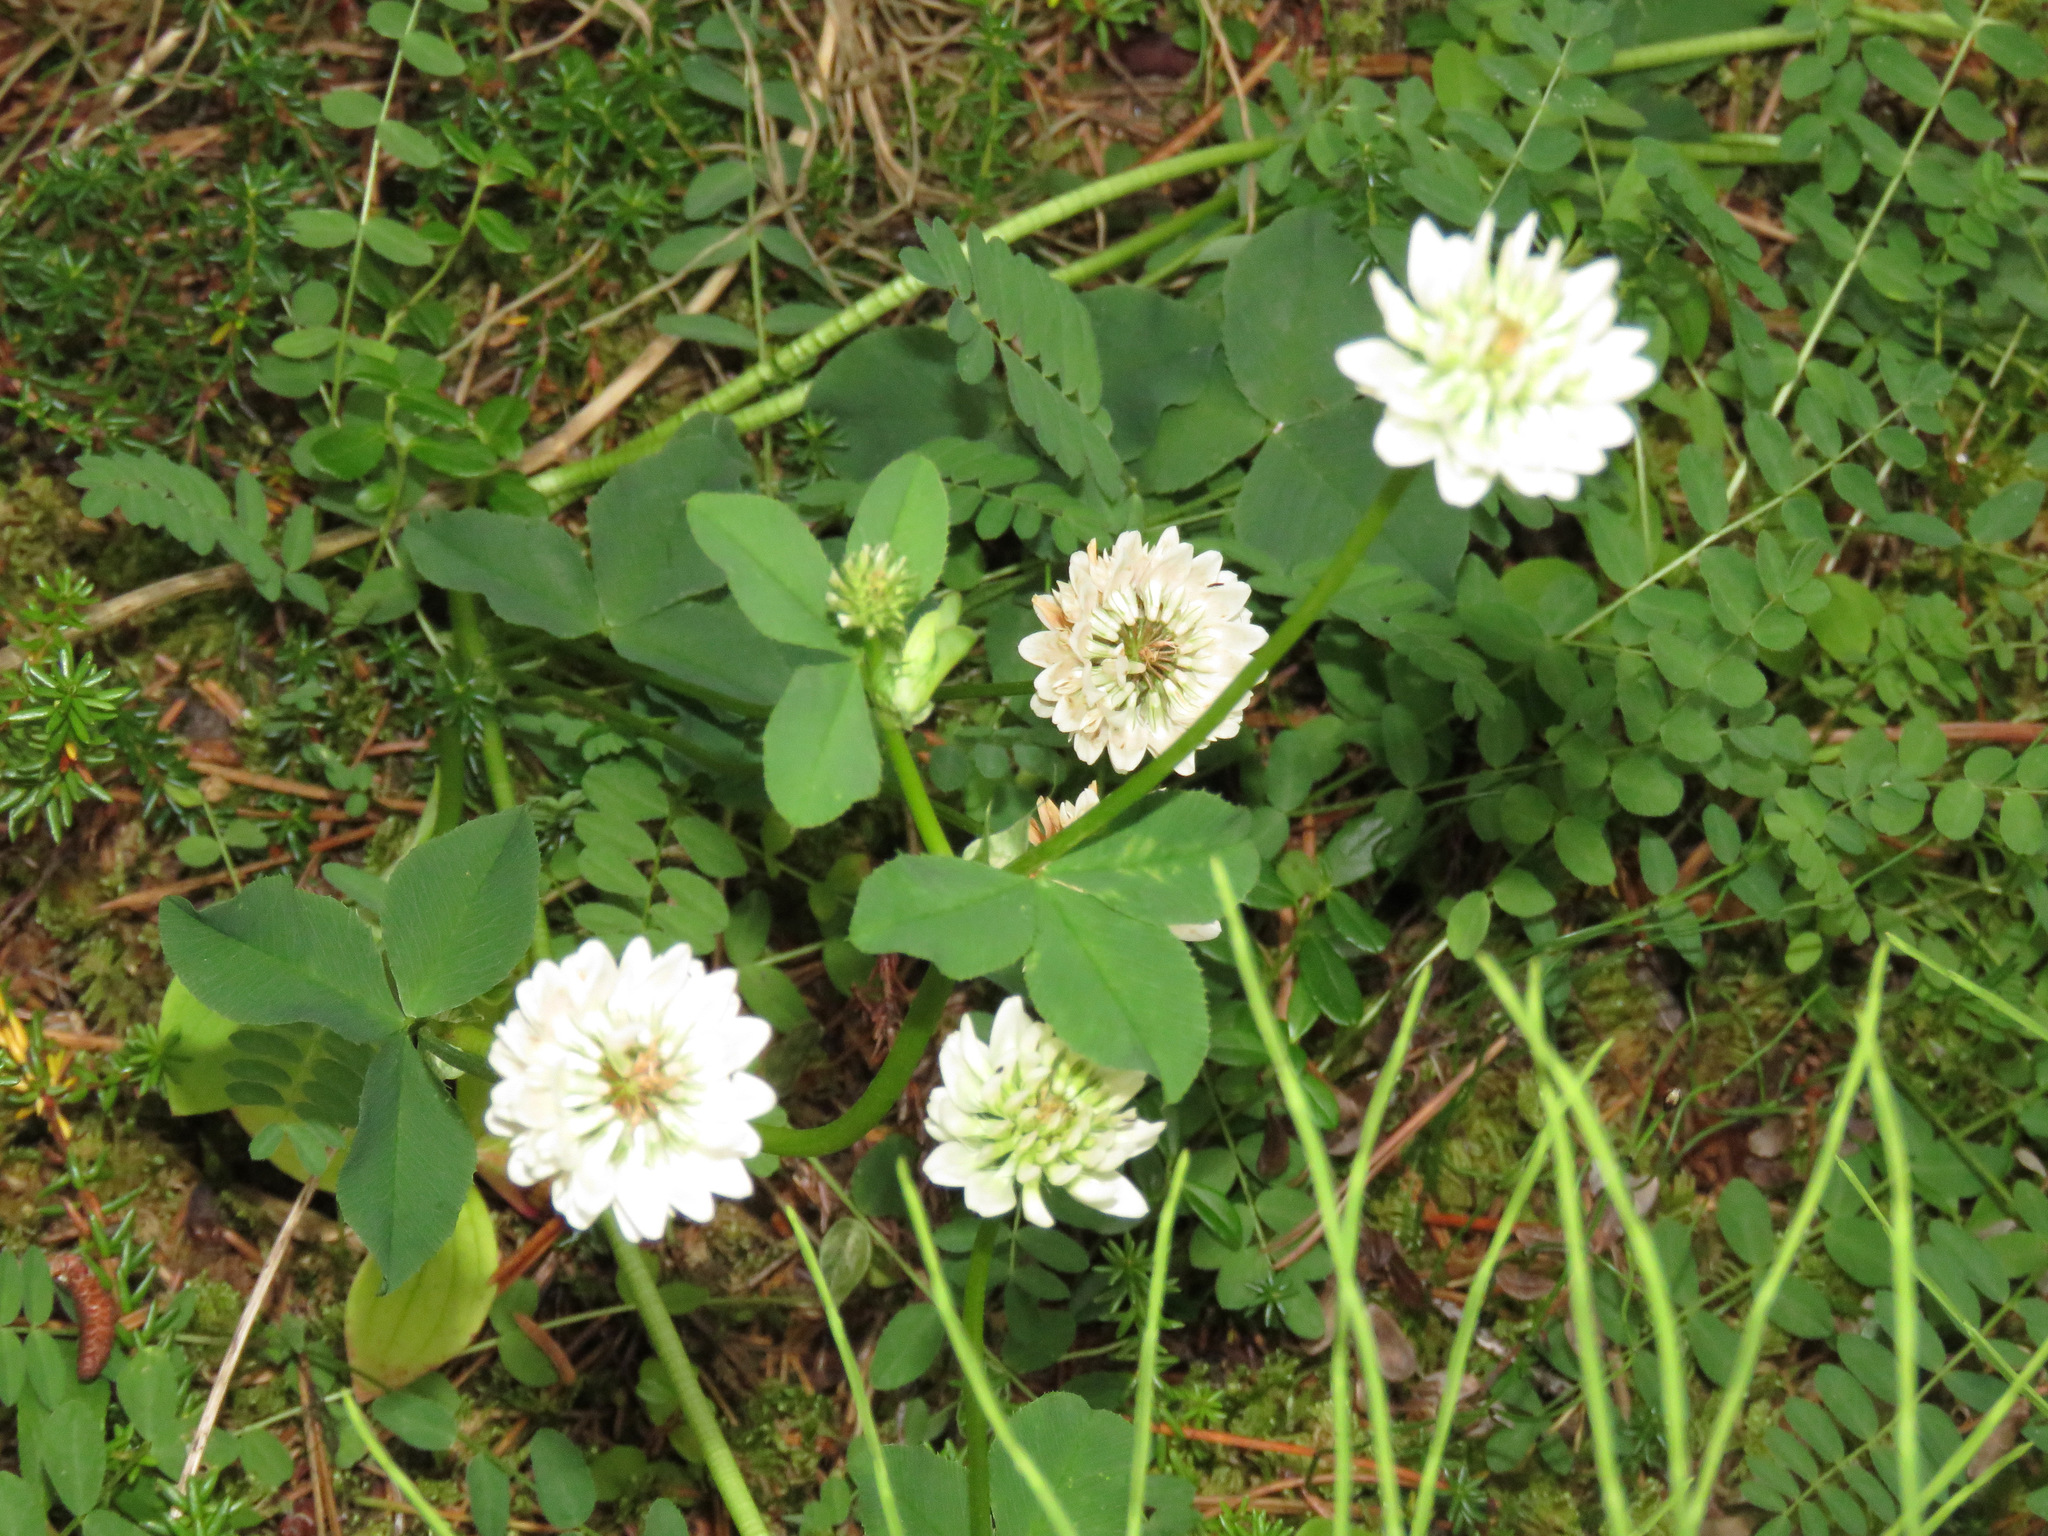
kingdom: Plantae
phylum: Tracheophyta
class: Magnoliopsida
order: Fabales
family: Fabaceae
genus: Trifolium
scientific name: Trifolium hybridum
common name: Alsike clover
